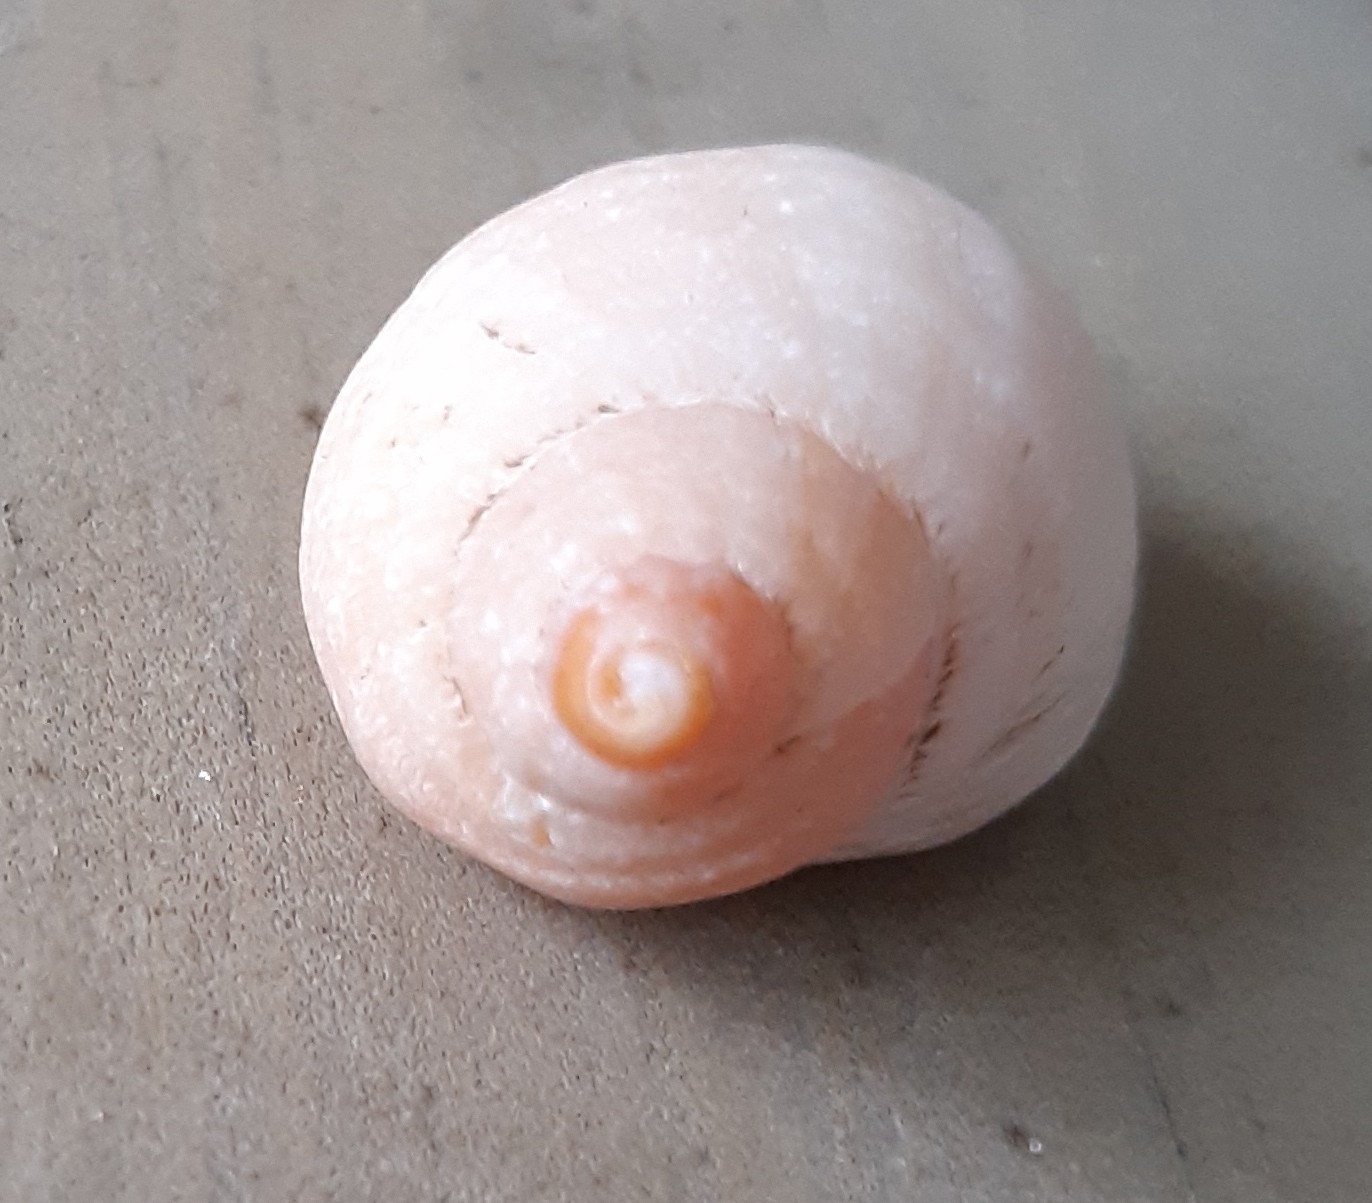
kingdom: Animalia
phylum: Mollusca
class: Gastropoda
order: Neogastropoda
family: Muricidae
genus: Nucella
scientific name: Nucella lapillus
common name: Dog whelk
